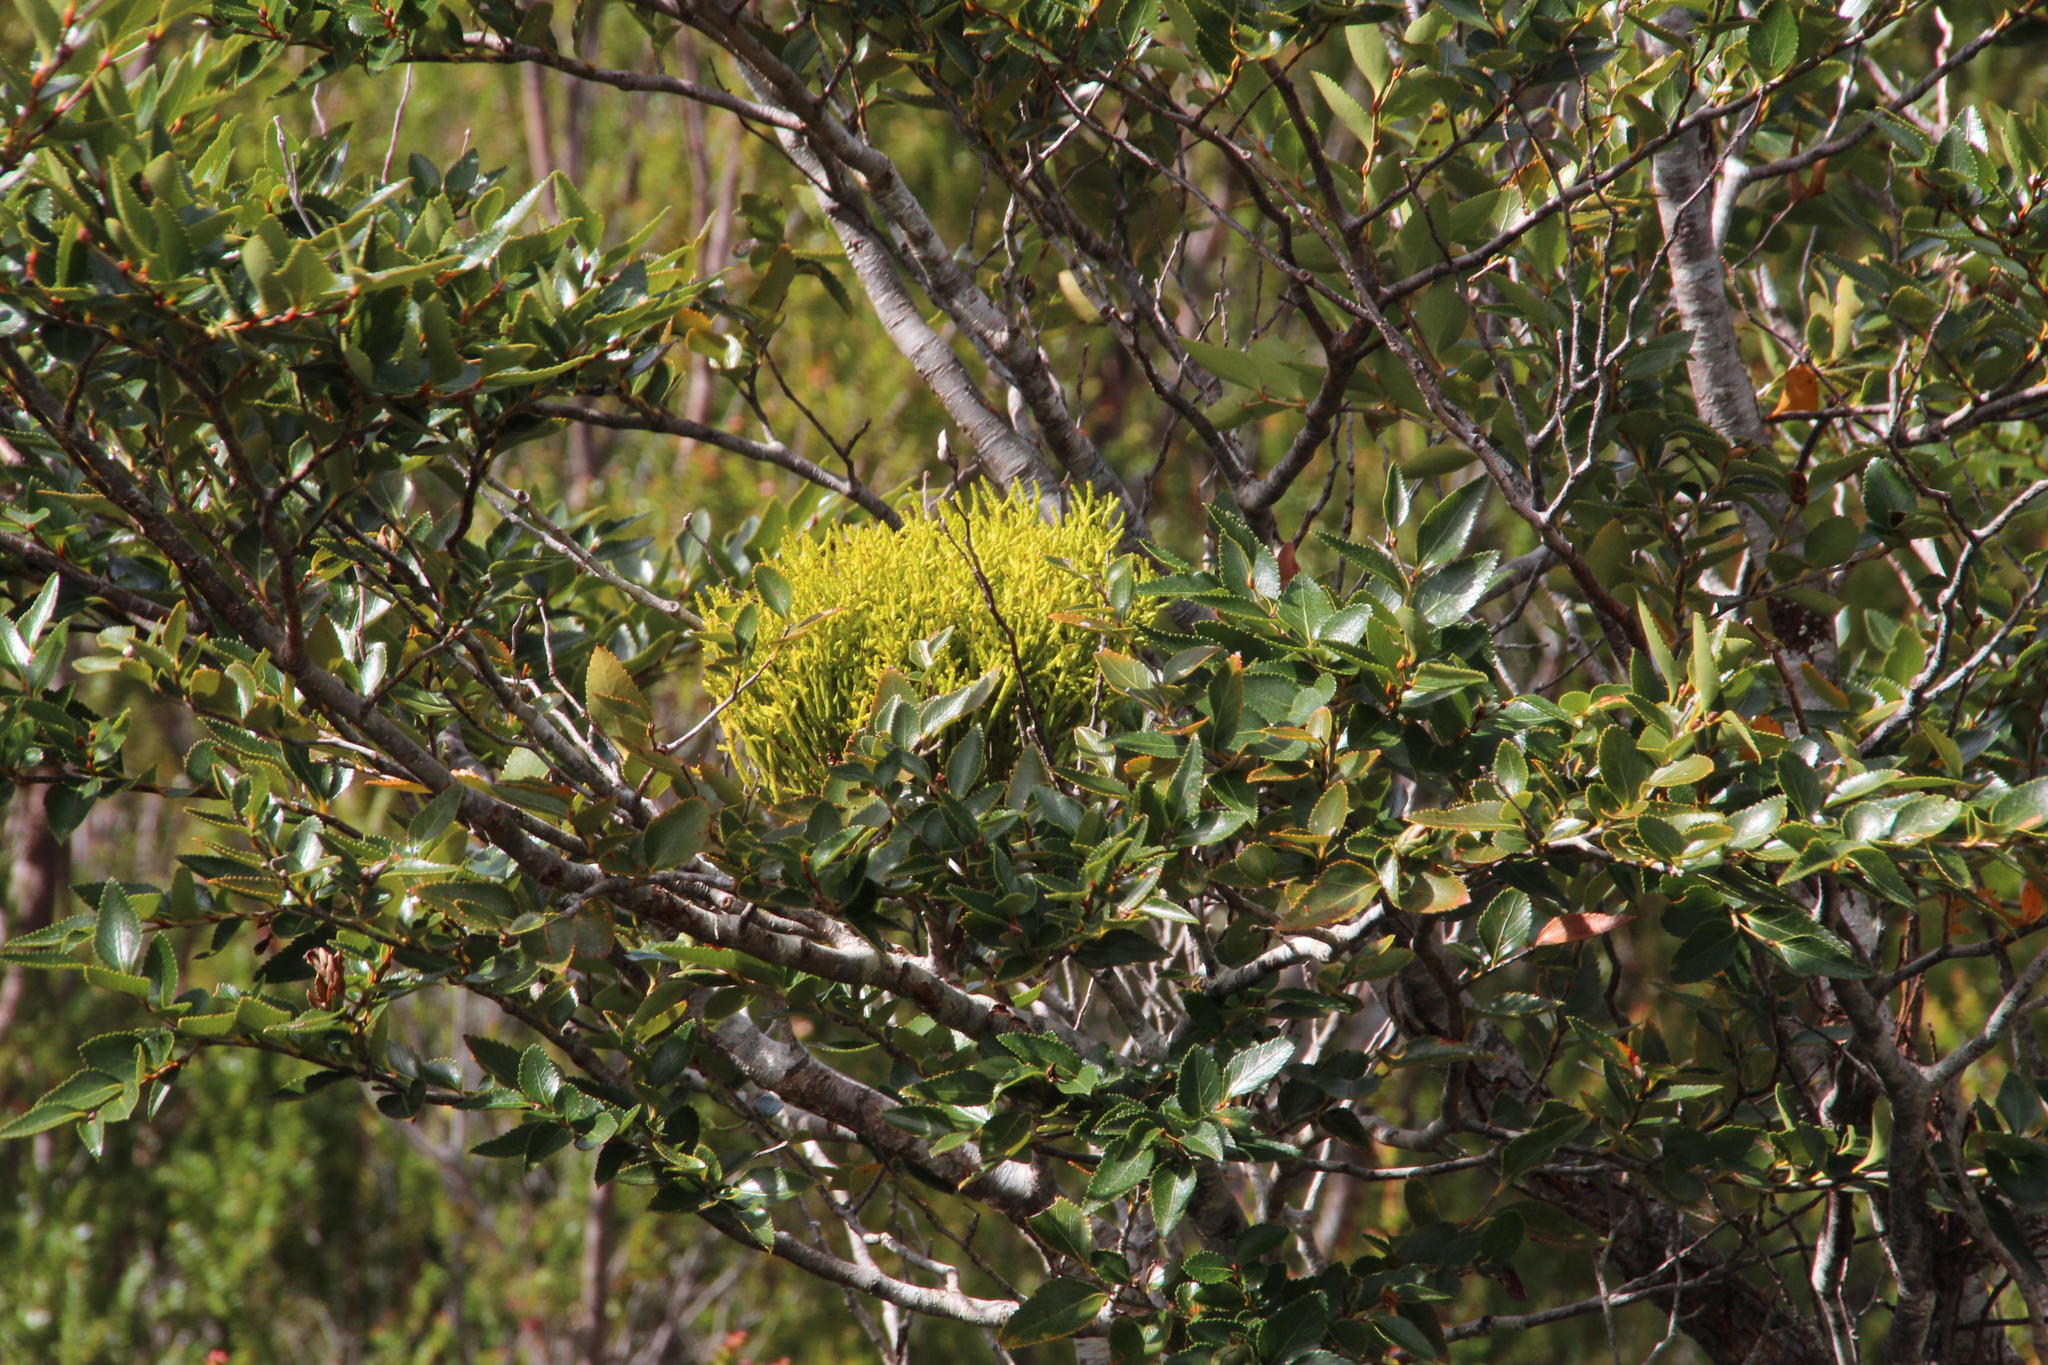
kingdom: Plantae
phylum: Tracheophyta
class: Magnoliopsida
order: Santalales
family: Misodendraceae
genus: Misodendrum
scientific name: Misodendrum punctulatum
